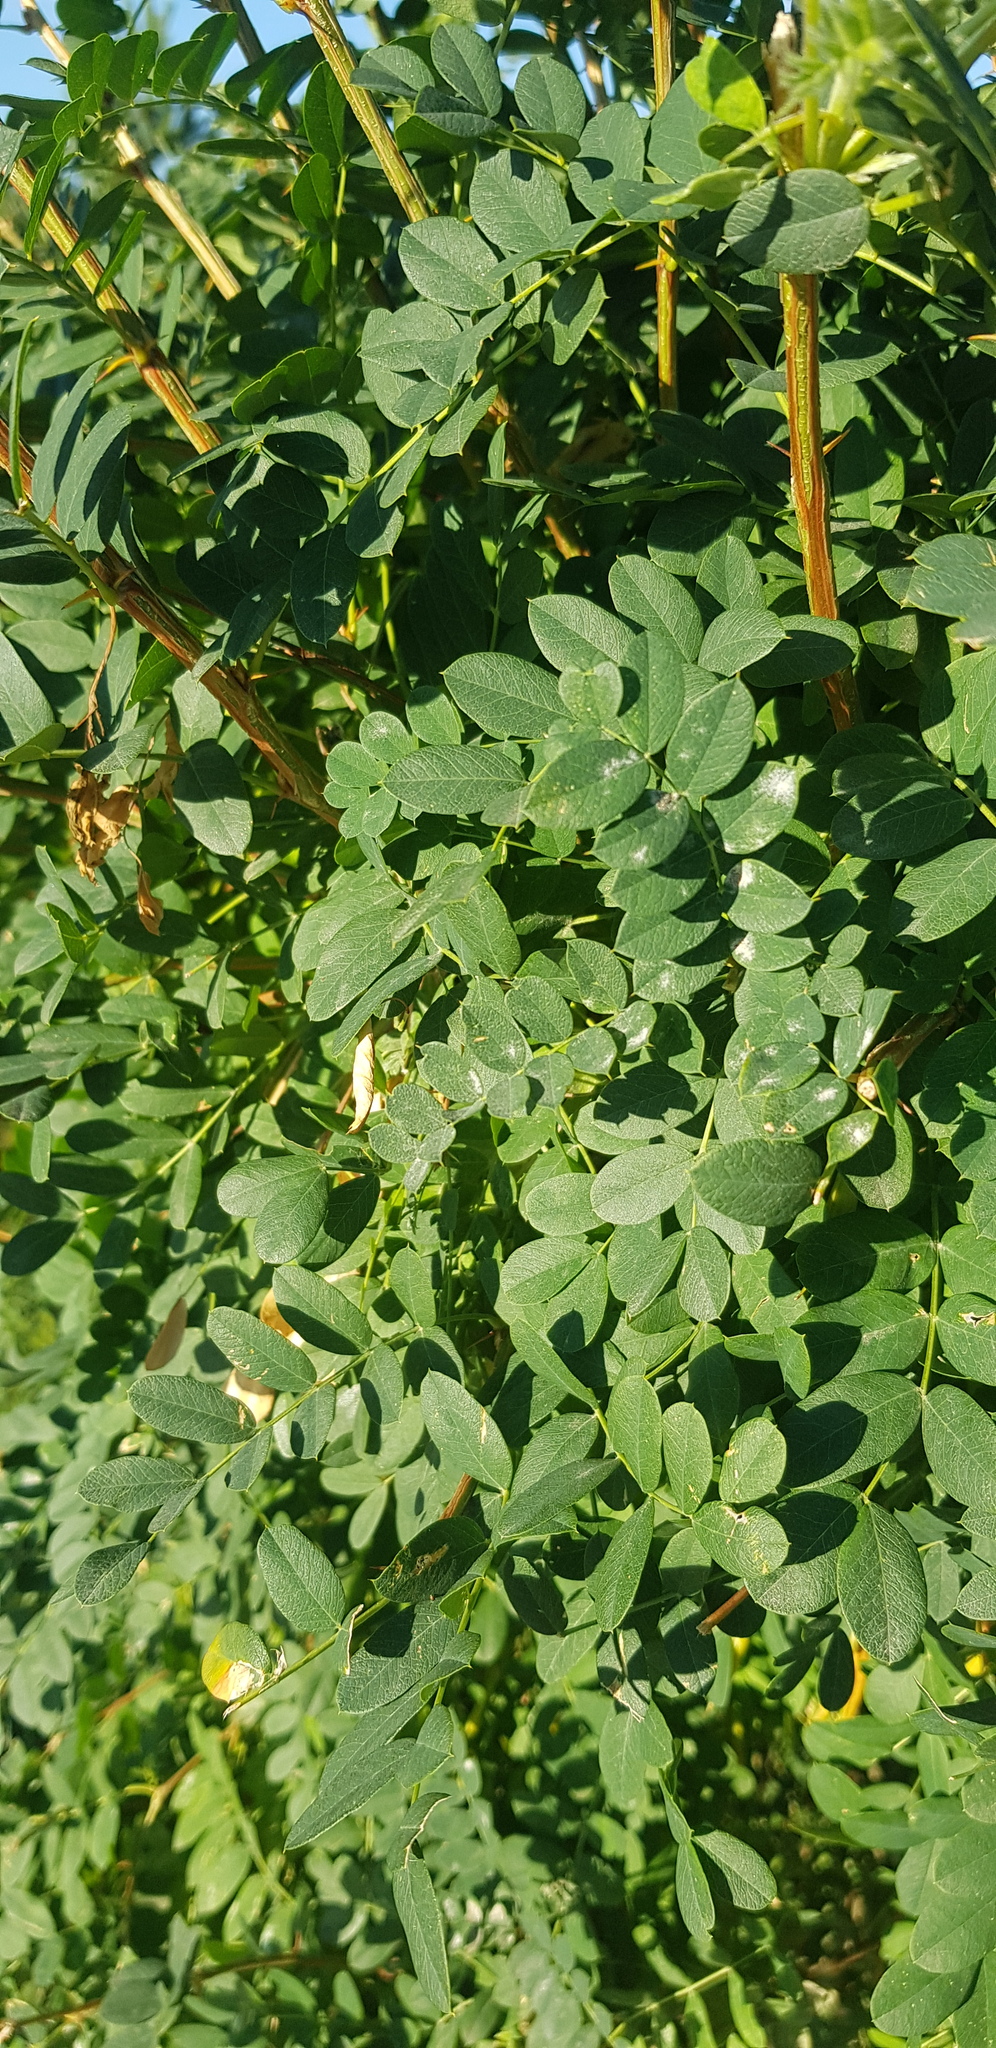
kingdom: Plantae
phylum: Tracheophyta
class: Magnoliopsida
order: Fabales
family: Fabaceae
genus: Caragana
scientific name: Caragana arborescens
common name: Siberian peashrub
